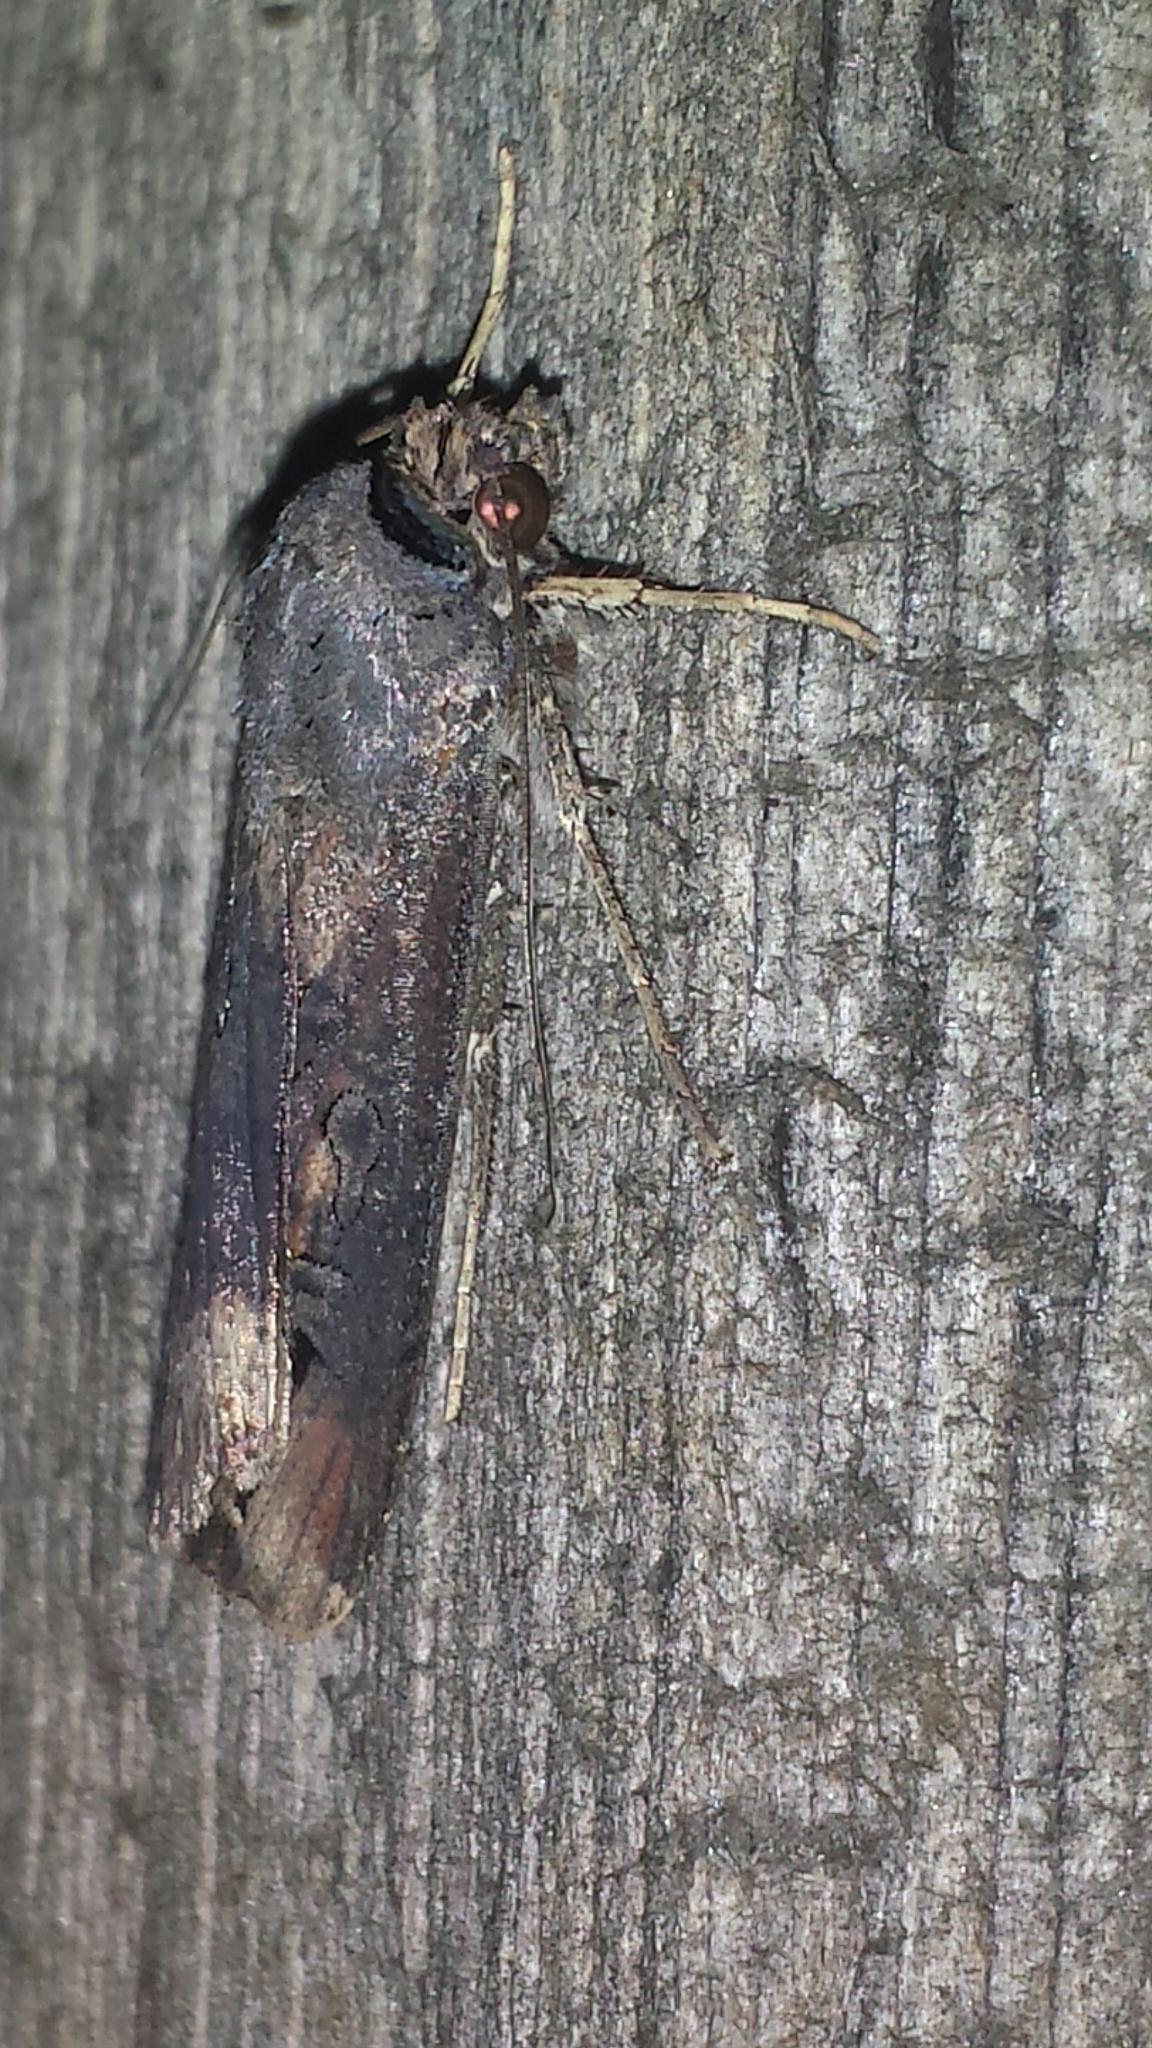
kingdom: Animalia
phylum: Arthropoda
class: Insecta
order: Lepidoptera
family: Noctuidae
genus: Agrotis
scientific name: Agrotis ipsilon
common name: Dark sword-grass
